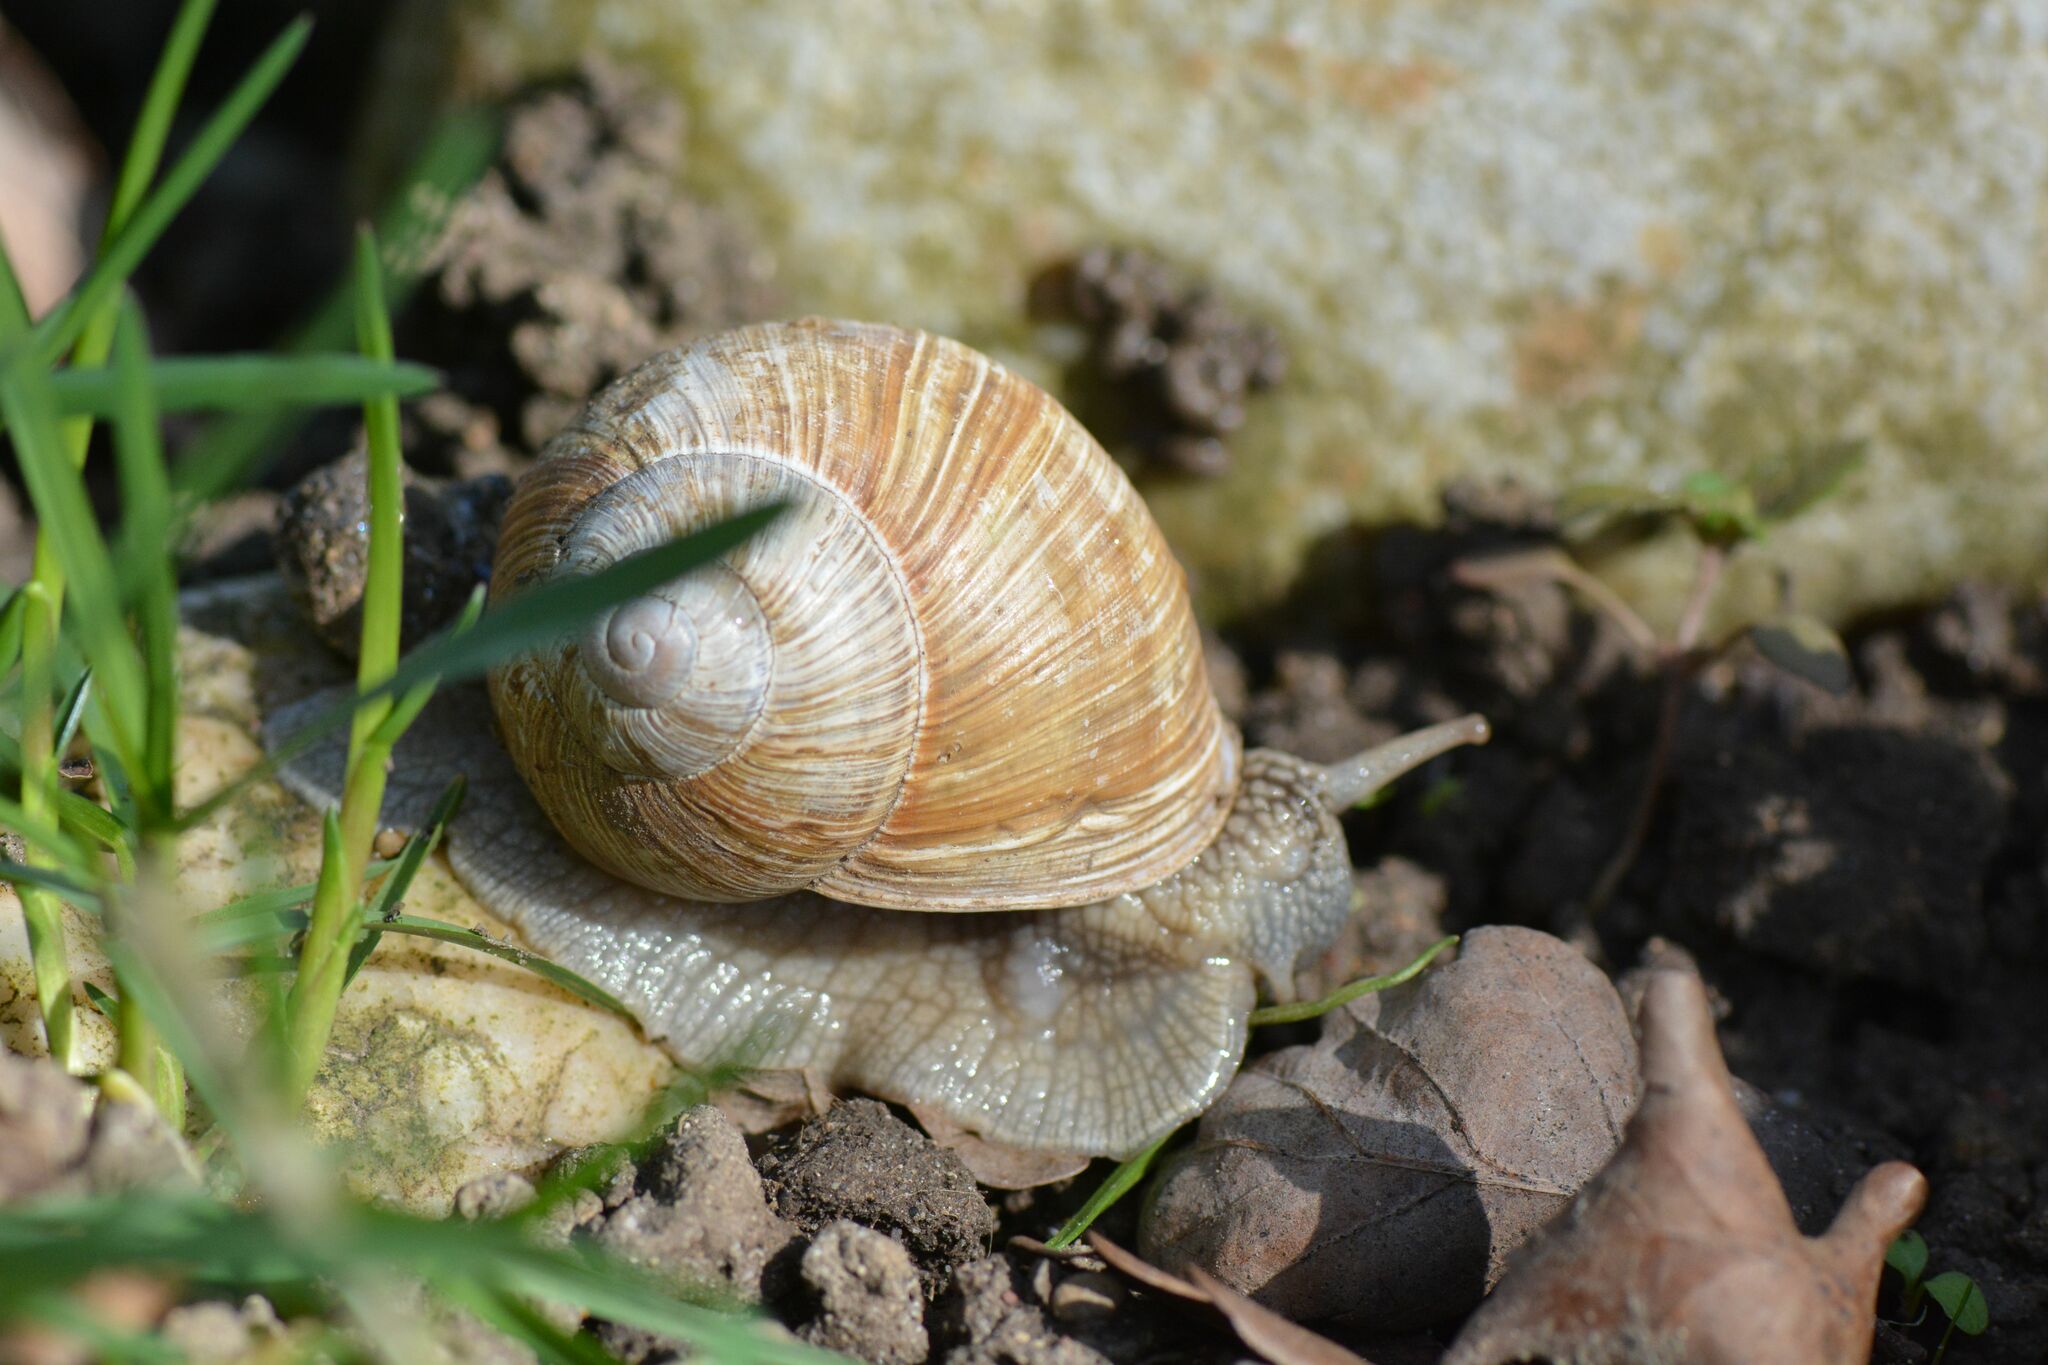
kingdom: Animalia
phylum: Mollusca
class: Gastropoda
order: Stylommatophora
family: Helicidae
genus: Helix
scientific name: Helix pomatia
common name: Roman snail
